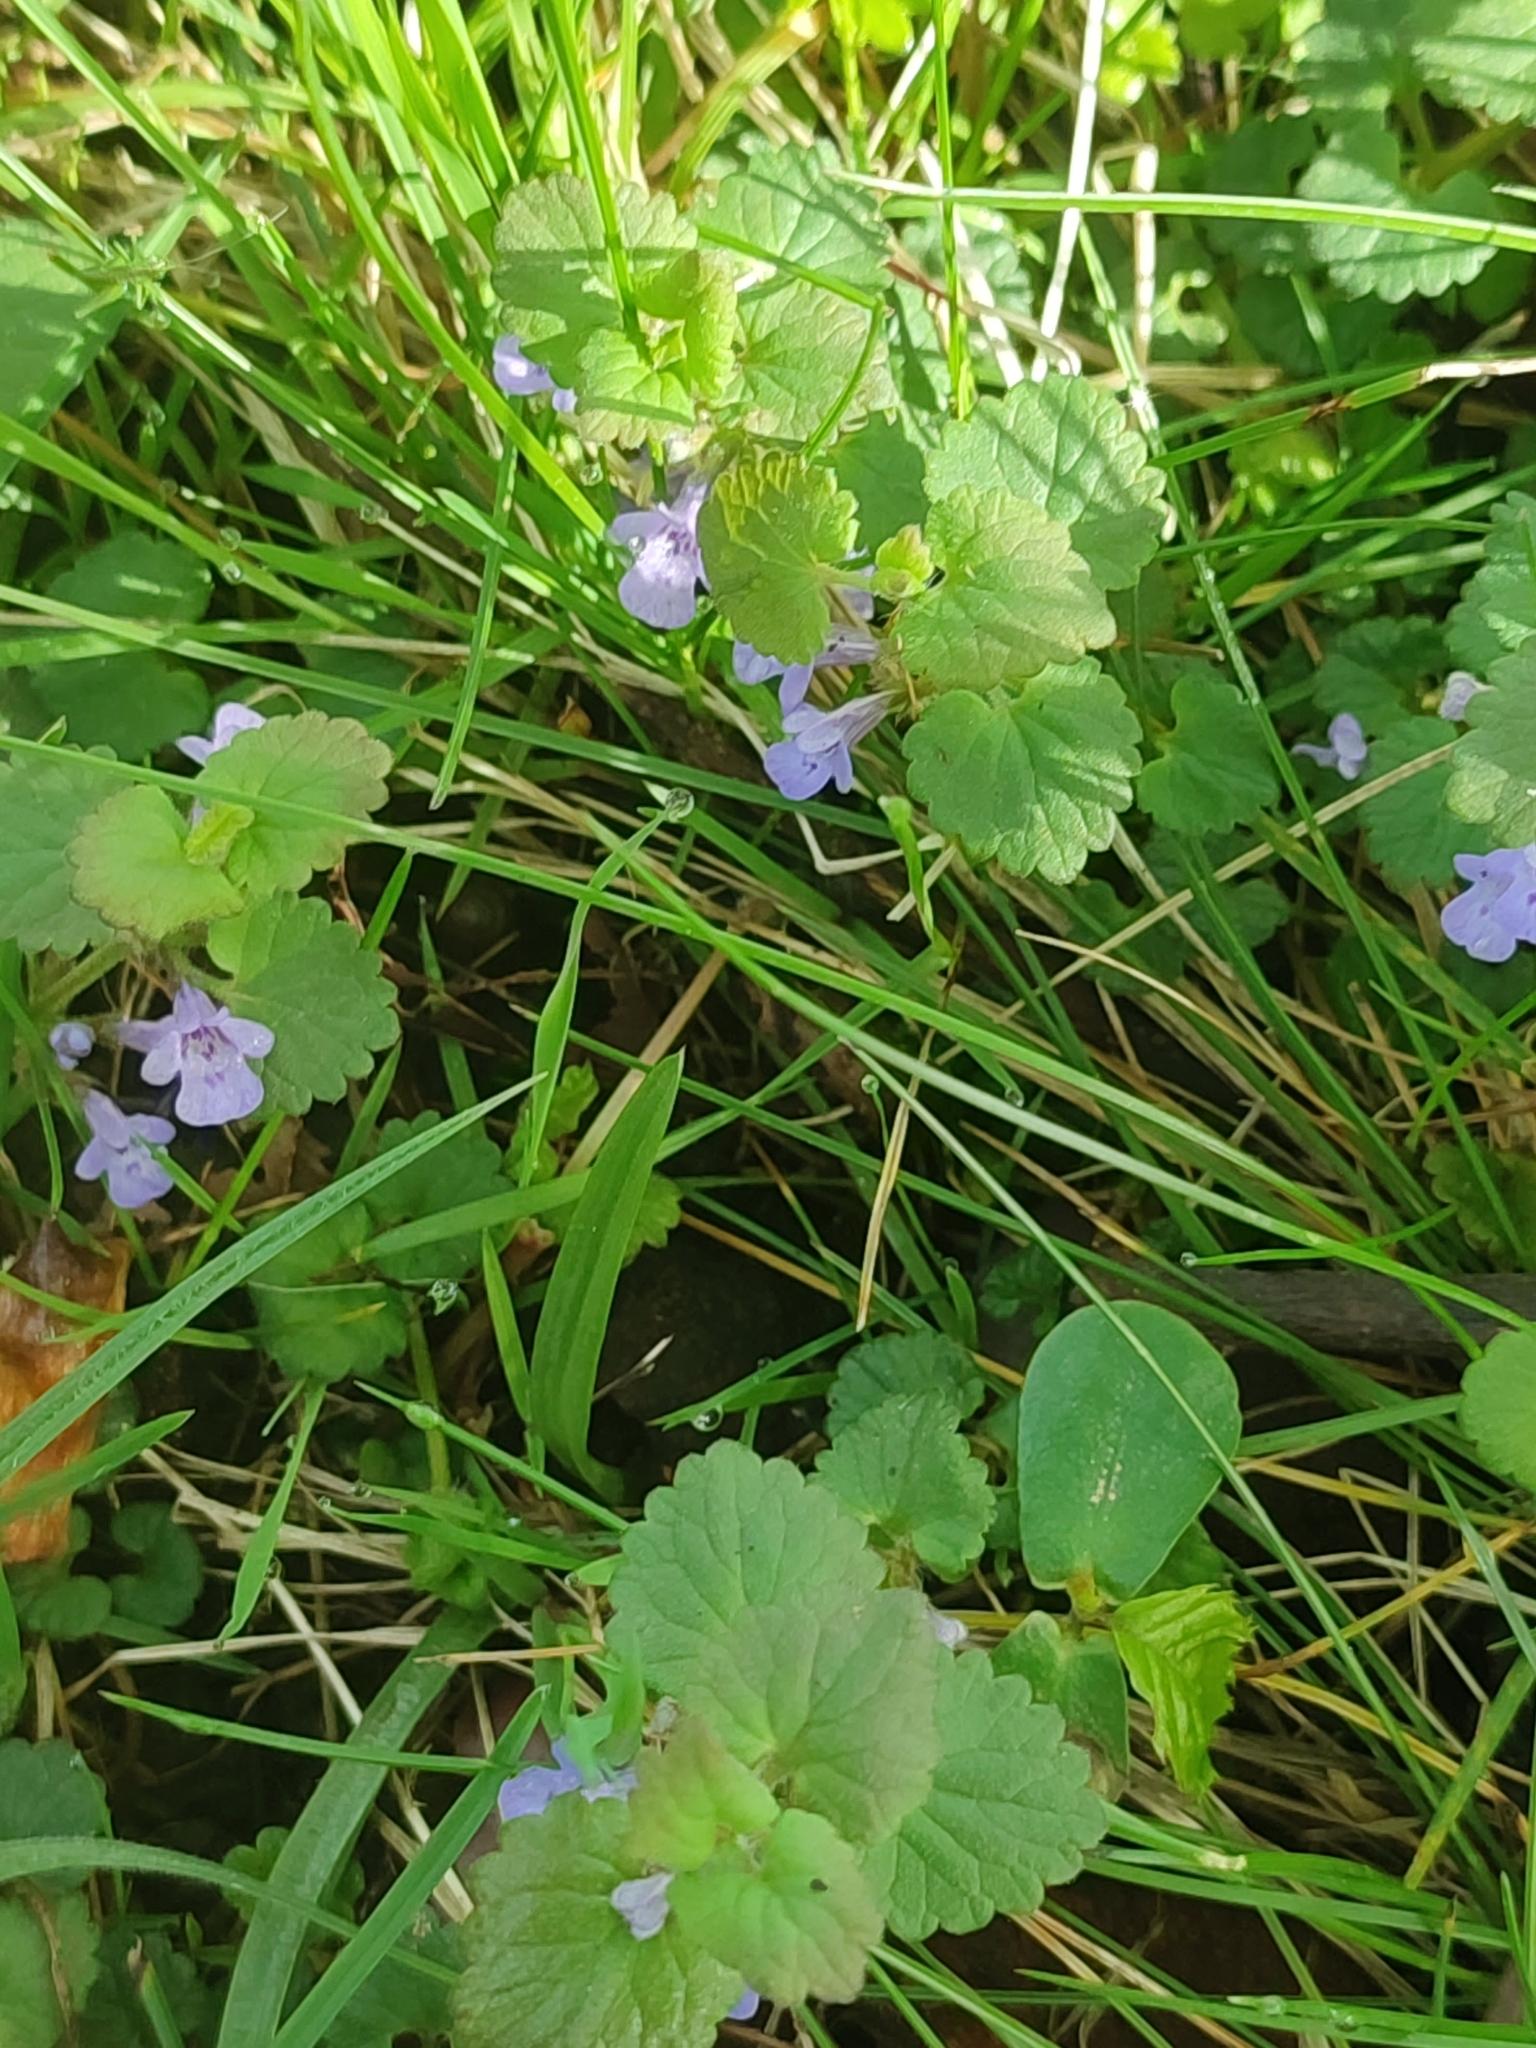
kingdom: Plantae
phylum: Tracheophyta
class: Magnoliopsida
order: Lamiales
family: Lamiaceae
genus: Glechoma
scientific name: Glechoma hederacea
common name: Ground ivy
